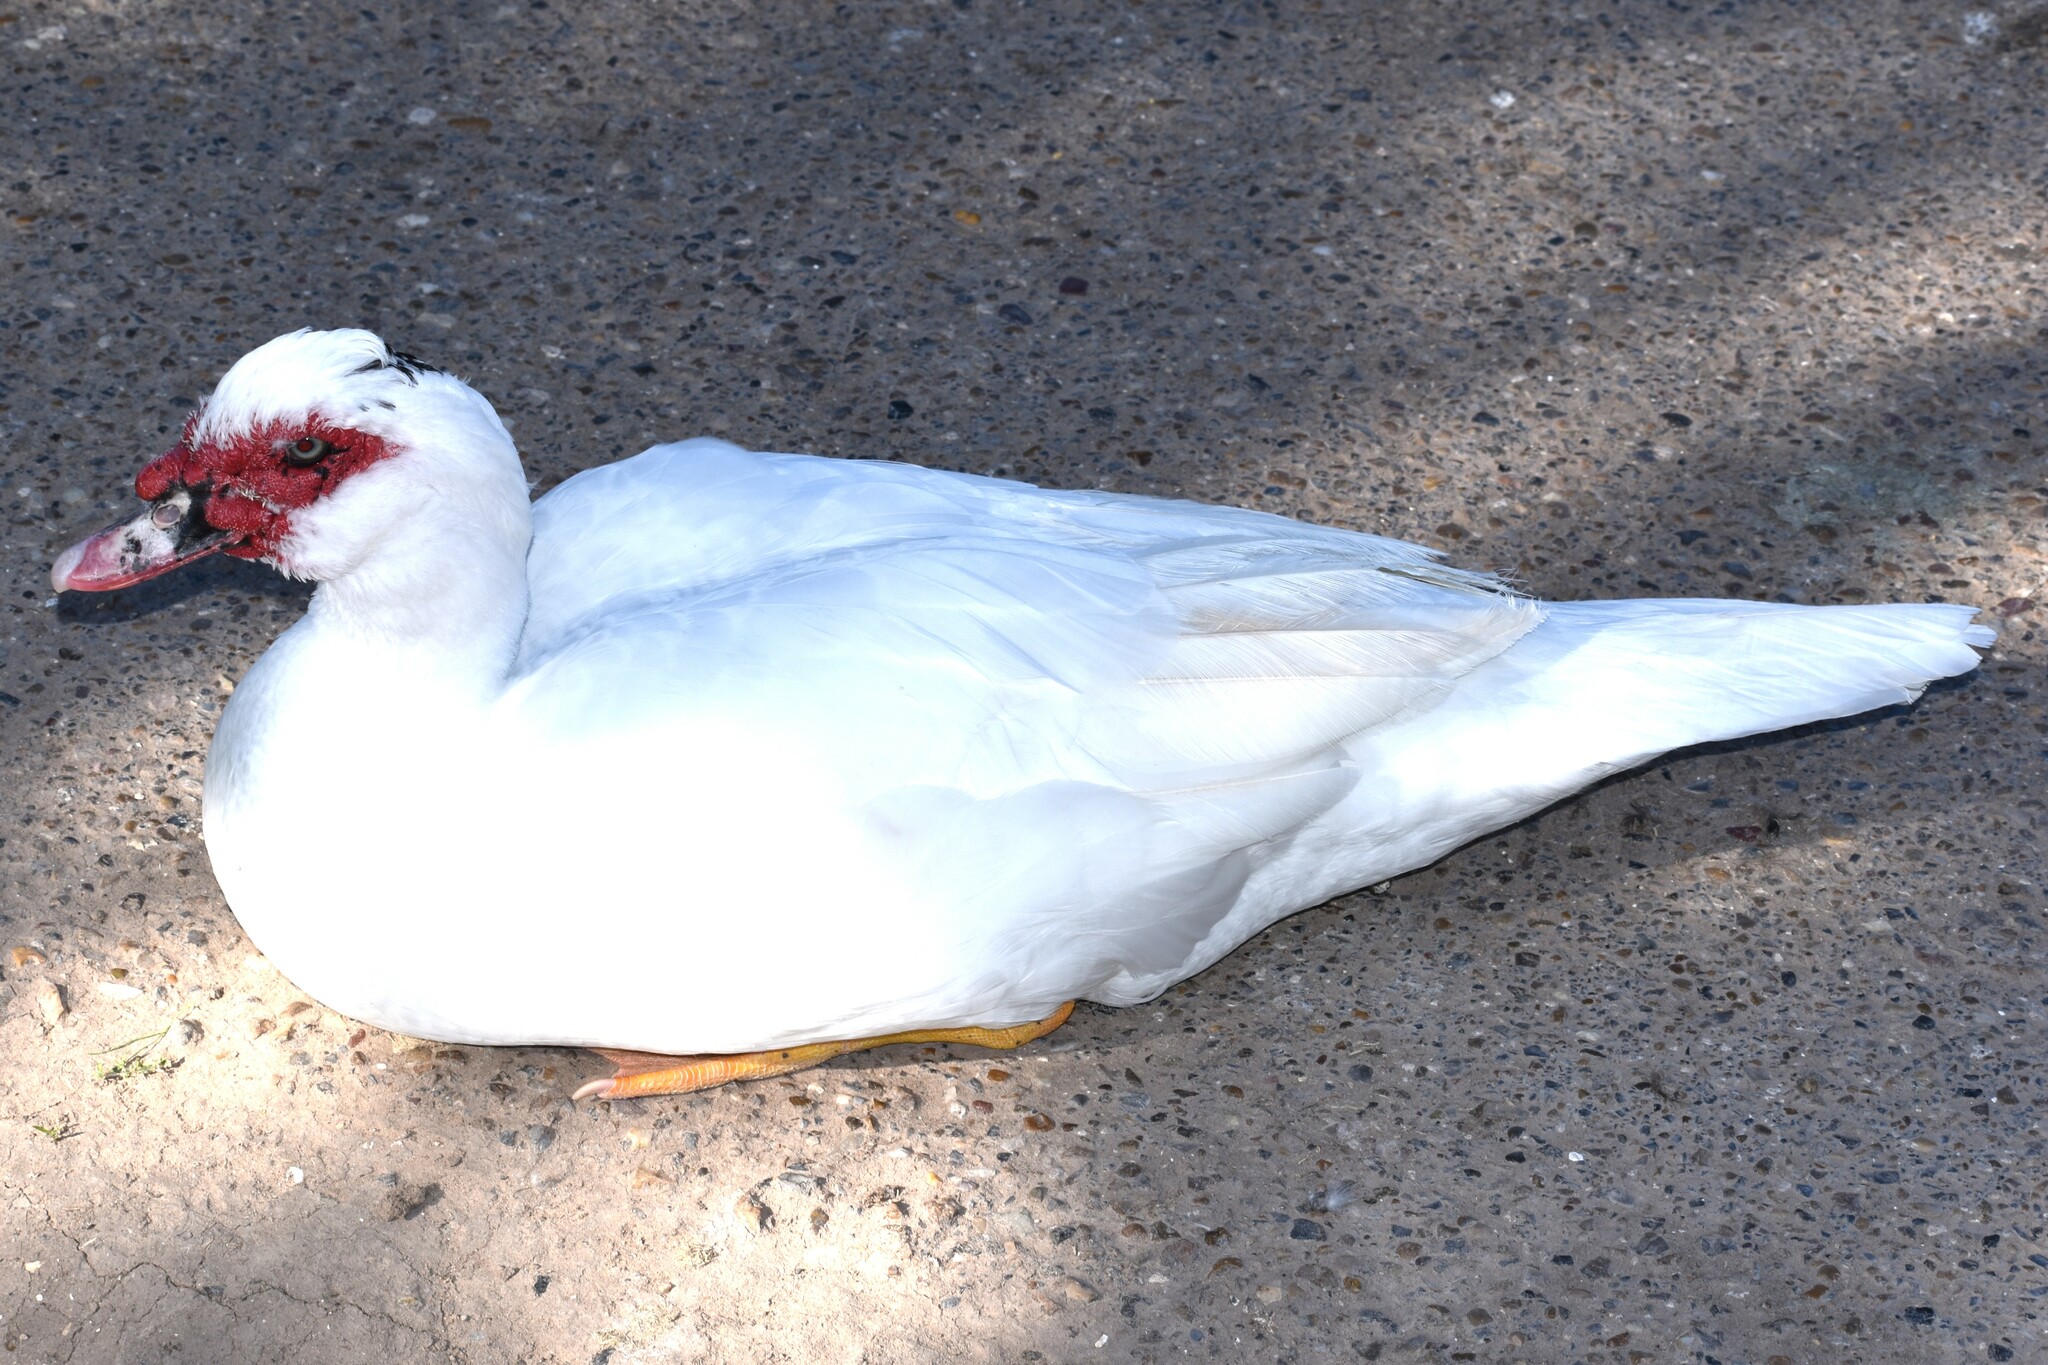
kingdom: Animalia
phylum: Chordata
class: Aves
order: Anseriformes
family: Anatidae
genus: Cairina
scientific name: Cairina moschata
